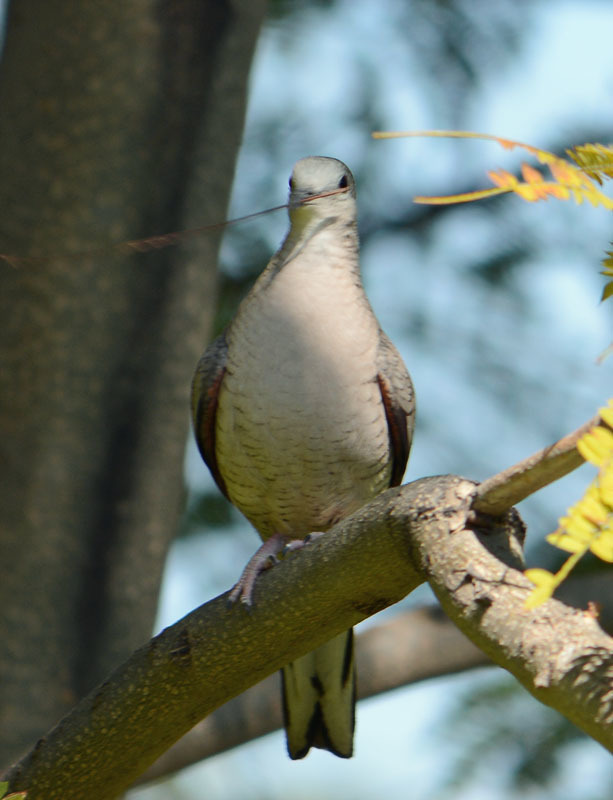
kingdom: Animalia
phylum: Chordata
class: Aves
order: Columbiformes
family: Columbidae
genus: Columbina
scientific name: Columbina inca
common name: Inca dove
